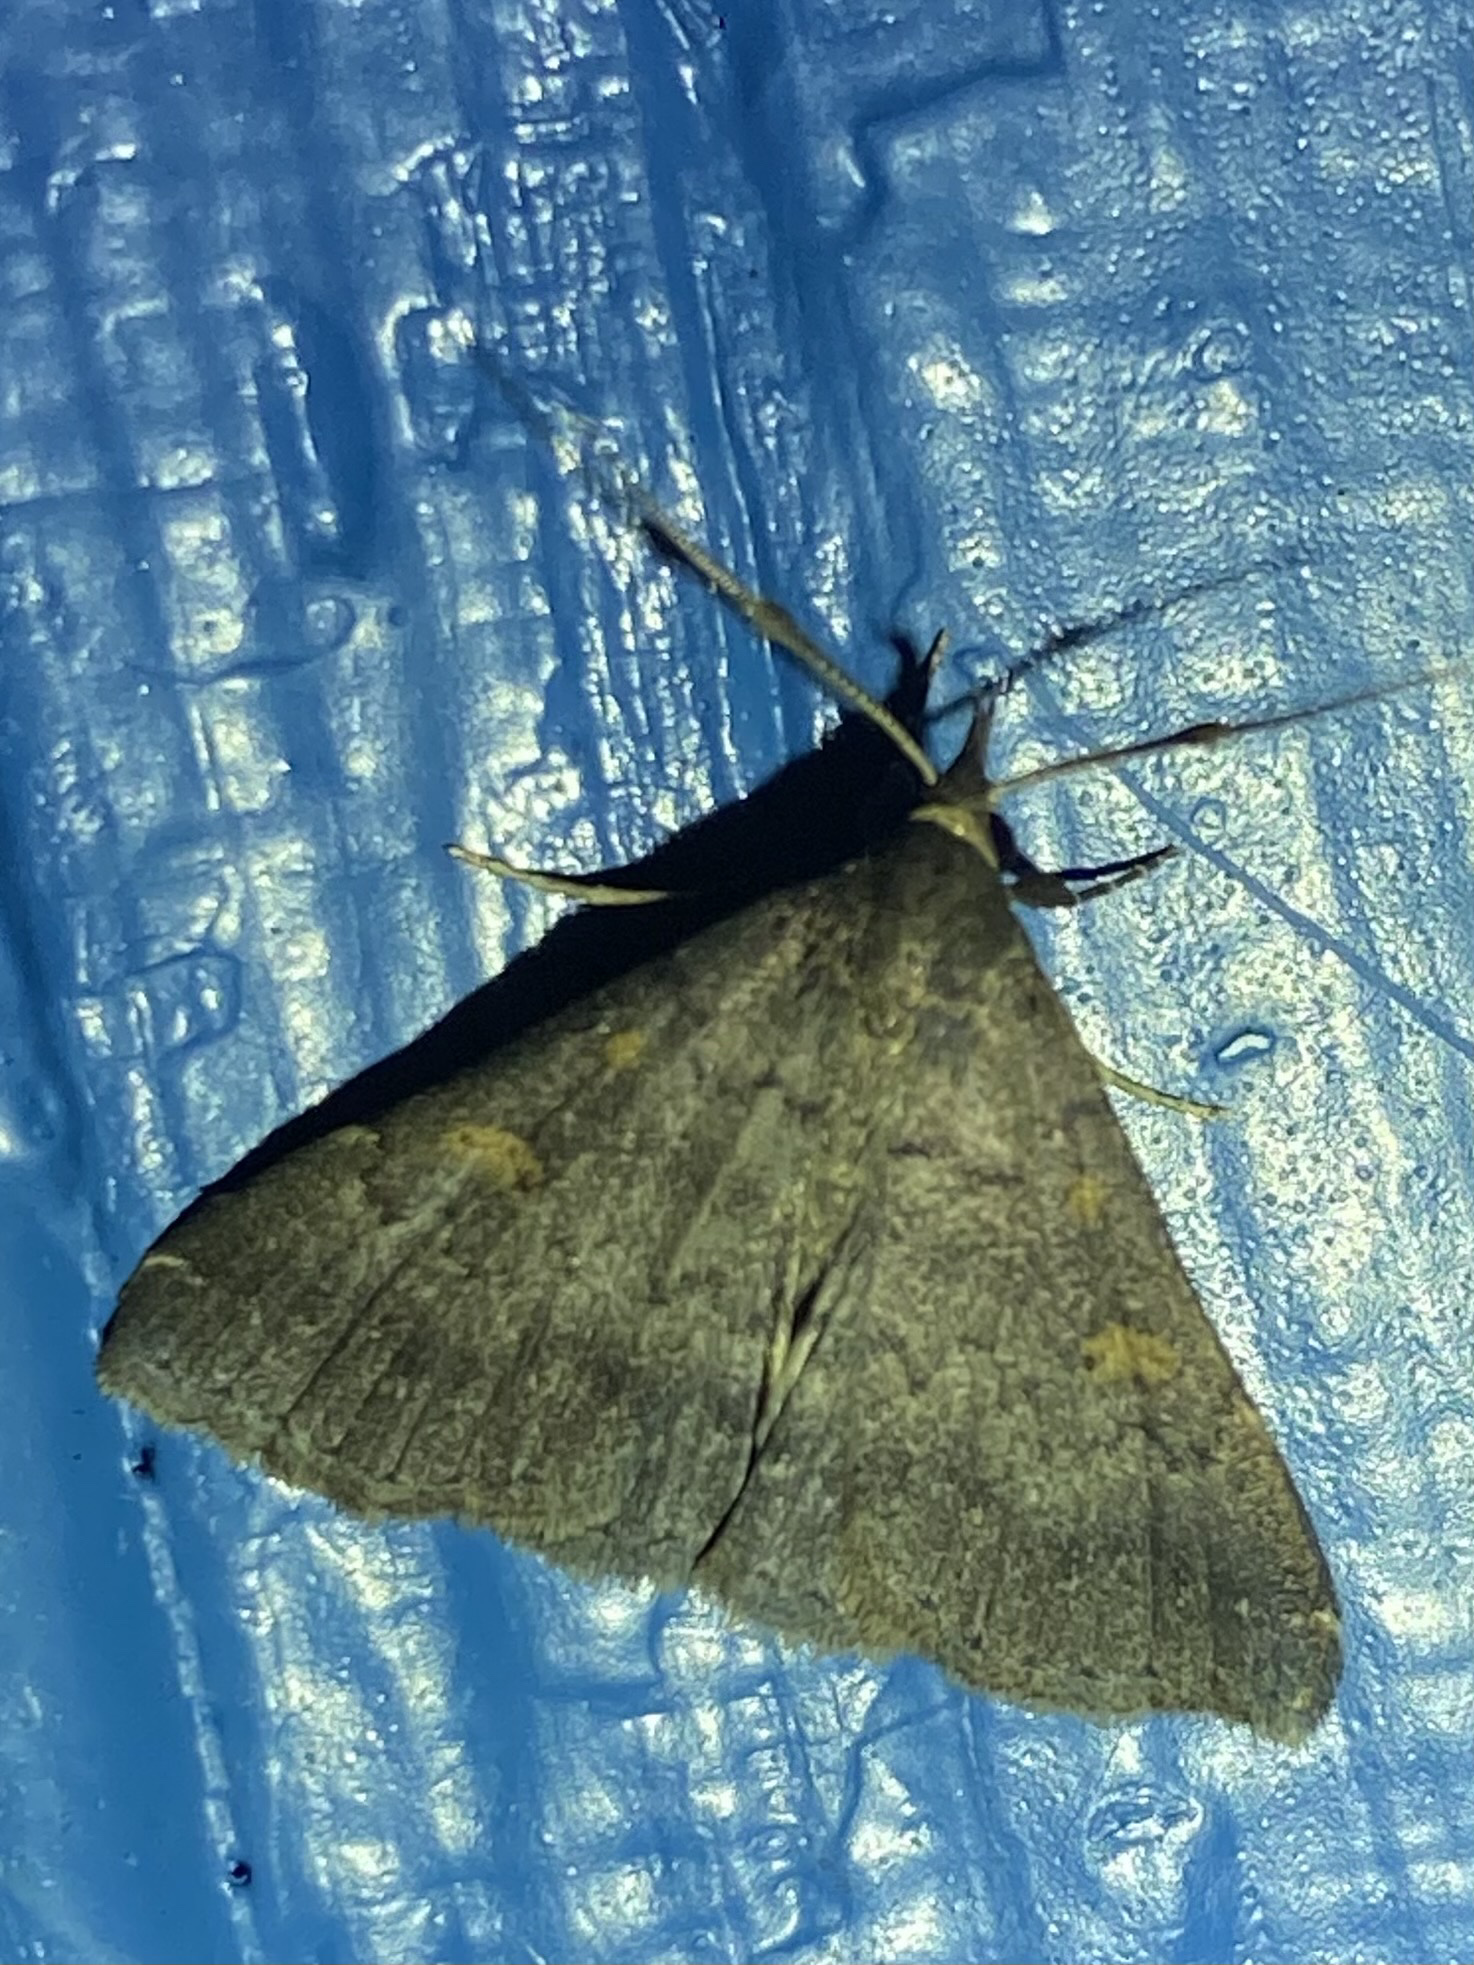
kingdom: Animalia
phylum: Arthropoda
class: Insecta
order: Lepidoptera
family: Erebidae
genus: Renia
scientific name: Renia sobrialis
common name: Sober renia moth
